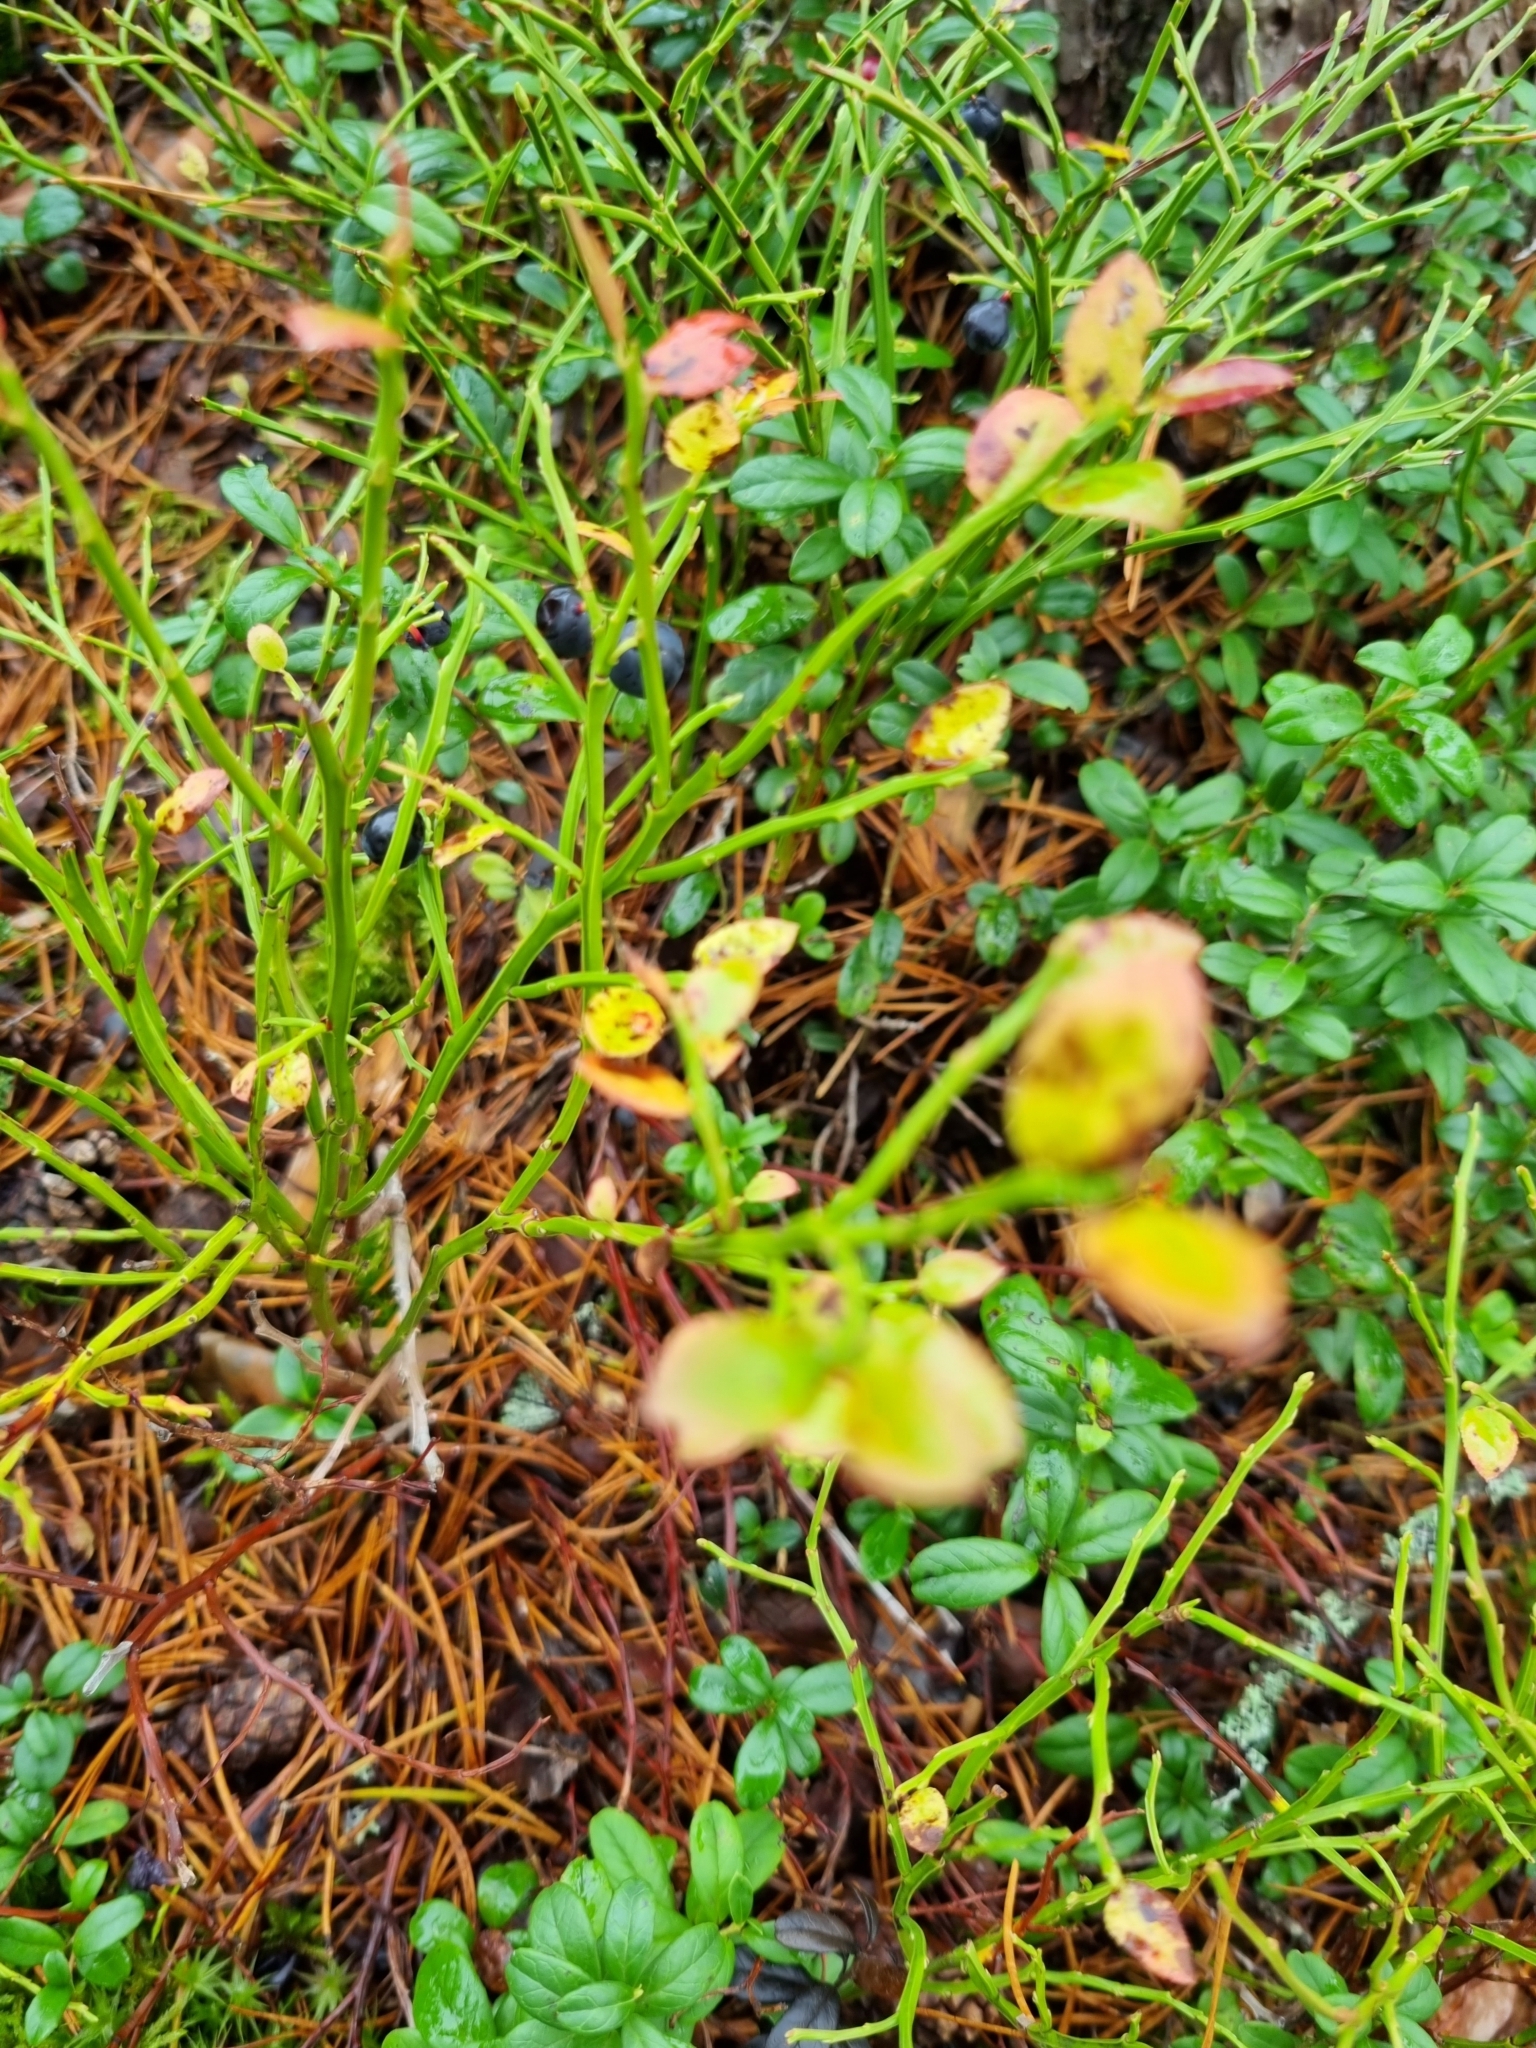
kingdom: Plantae
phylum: Tracheophyta
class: Magnoliopsida
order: Ericales
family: Ericaceae
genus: Vaccinium
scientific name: Vaccinium myrtillus
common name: Bilberry
